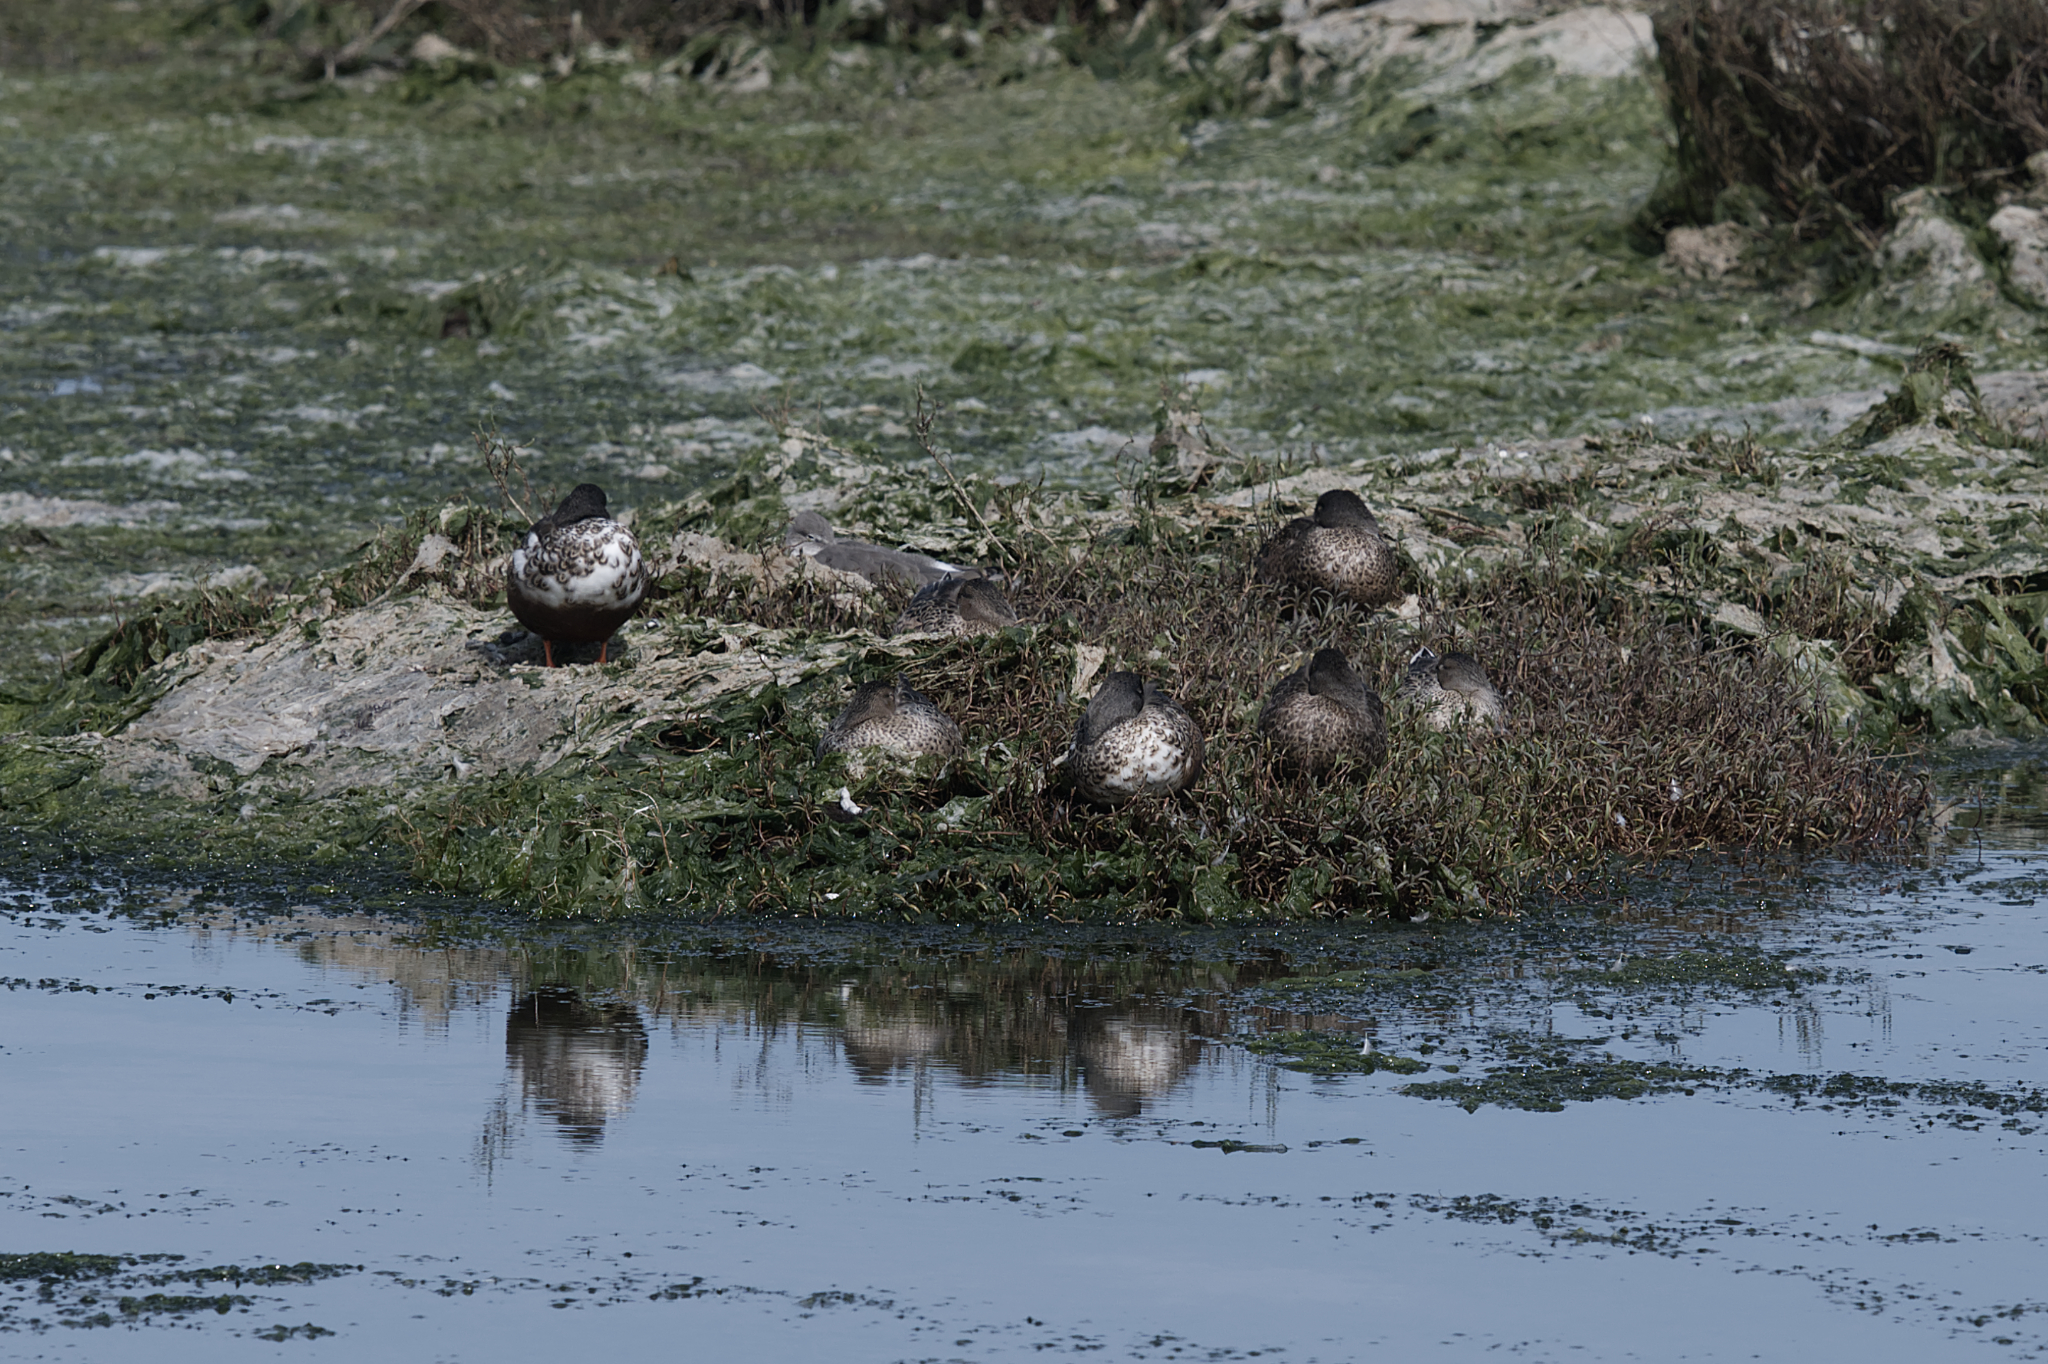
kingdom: Animalia
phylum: Chordata
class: Aves
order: Anseriformes
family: Anatidae
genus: Spatula
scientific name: Spatula clypeata
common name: Northern shoveler
